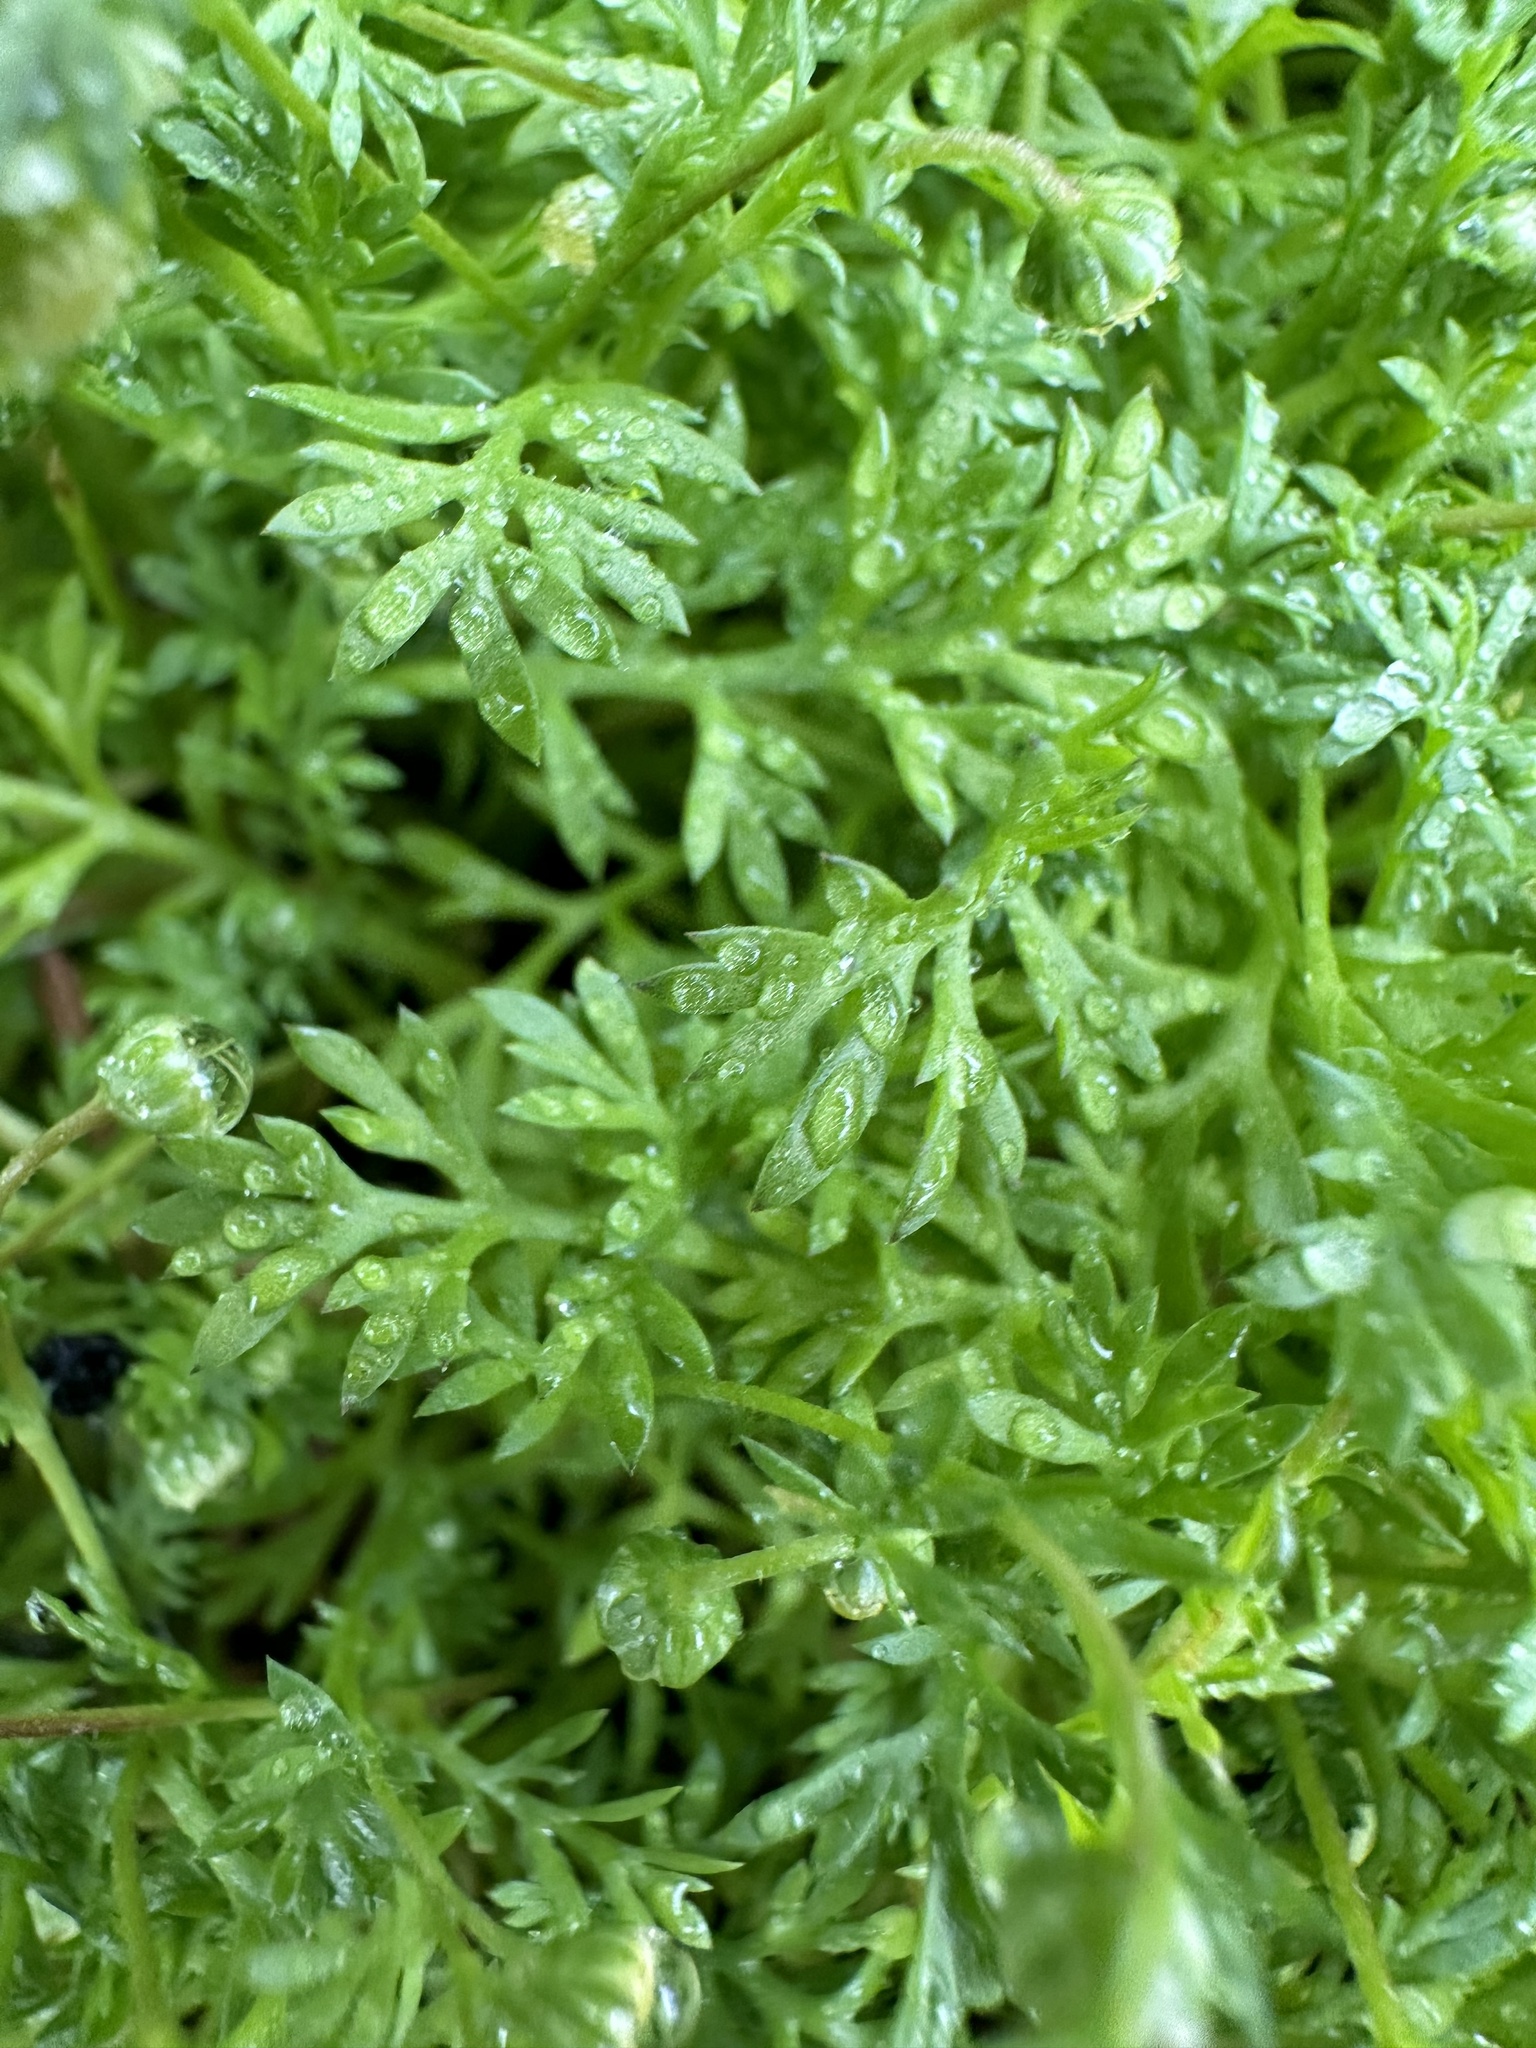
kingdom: Plantae
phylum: Tracheophyta
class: Magnoliopsida
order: Asterales
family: Asteraceae
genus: Cotula
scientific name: Cotula australis
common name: Australian waterbuttons
